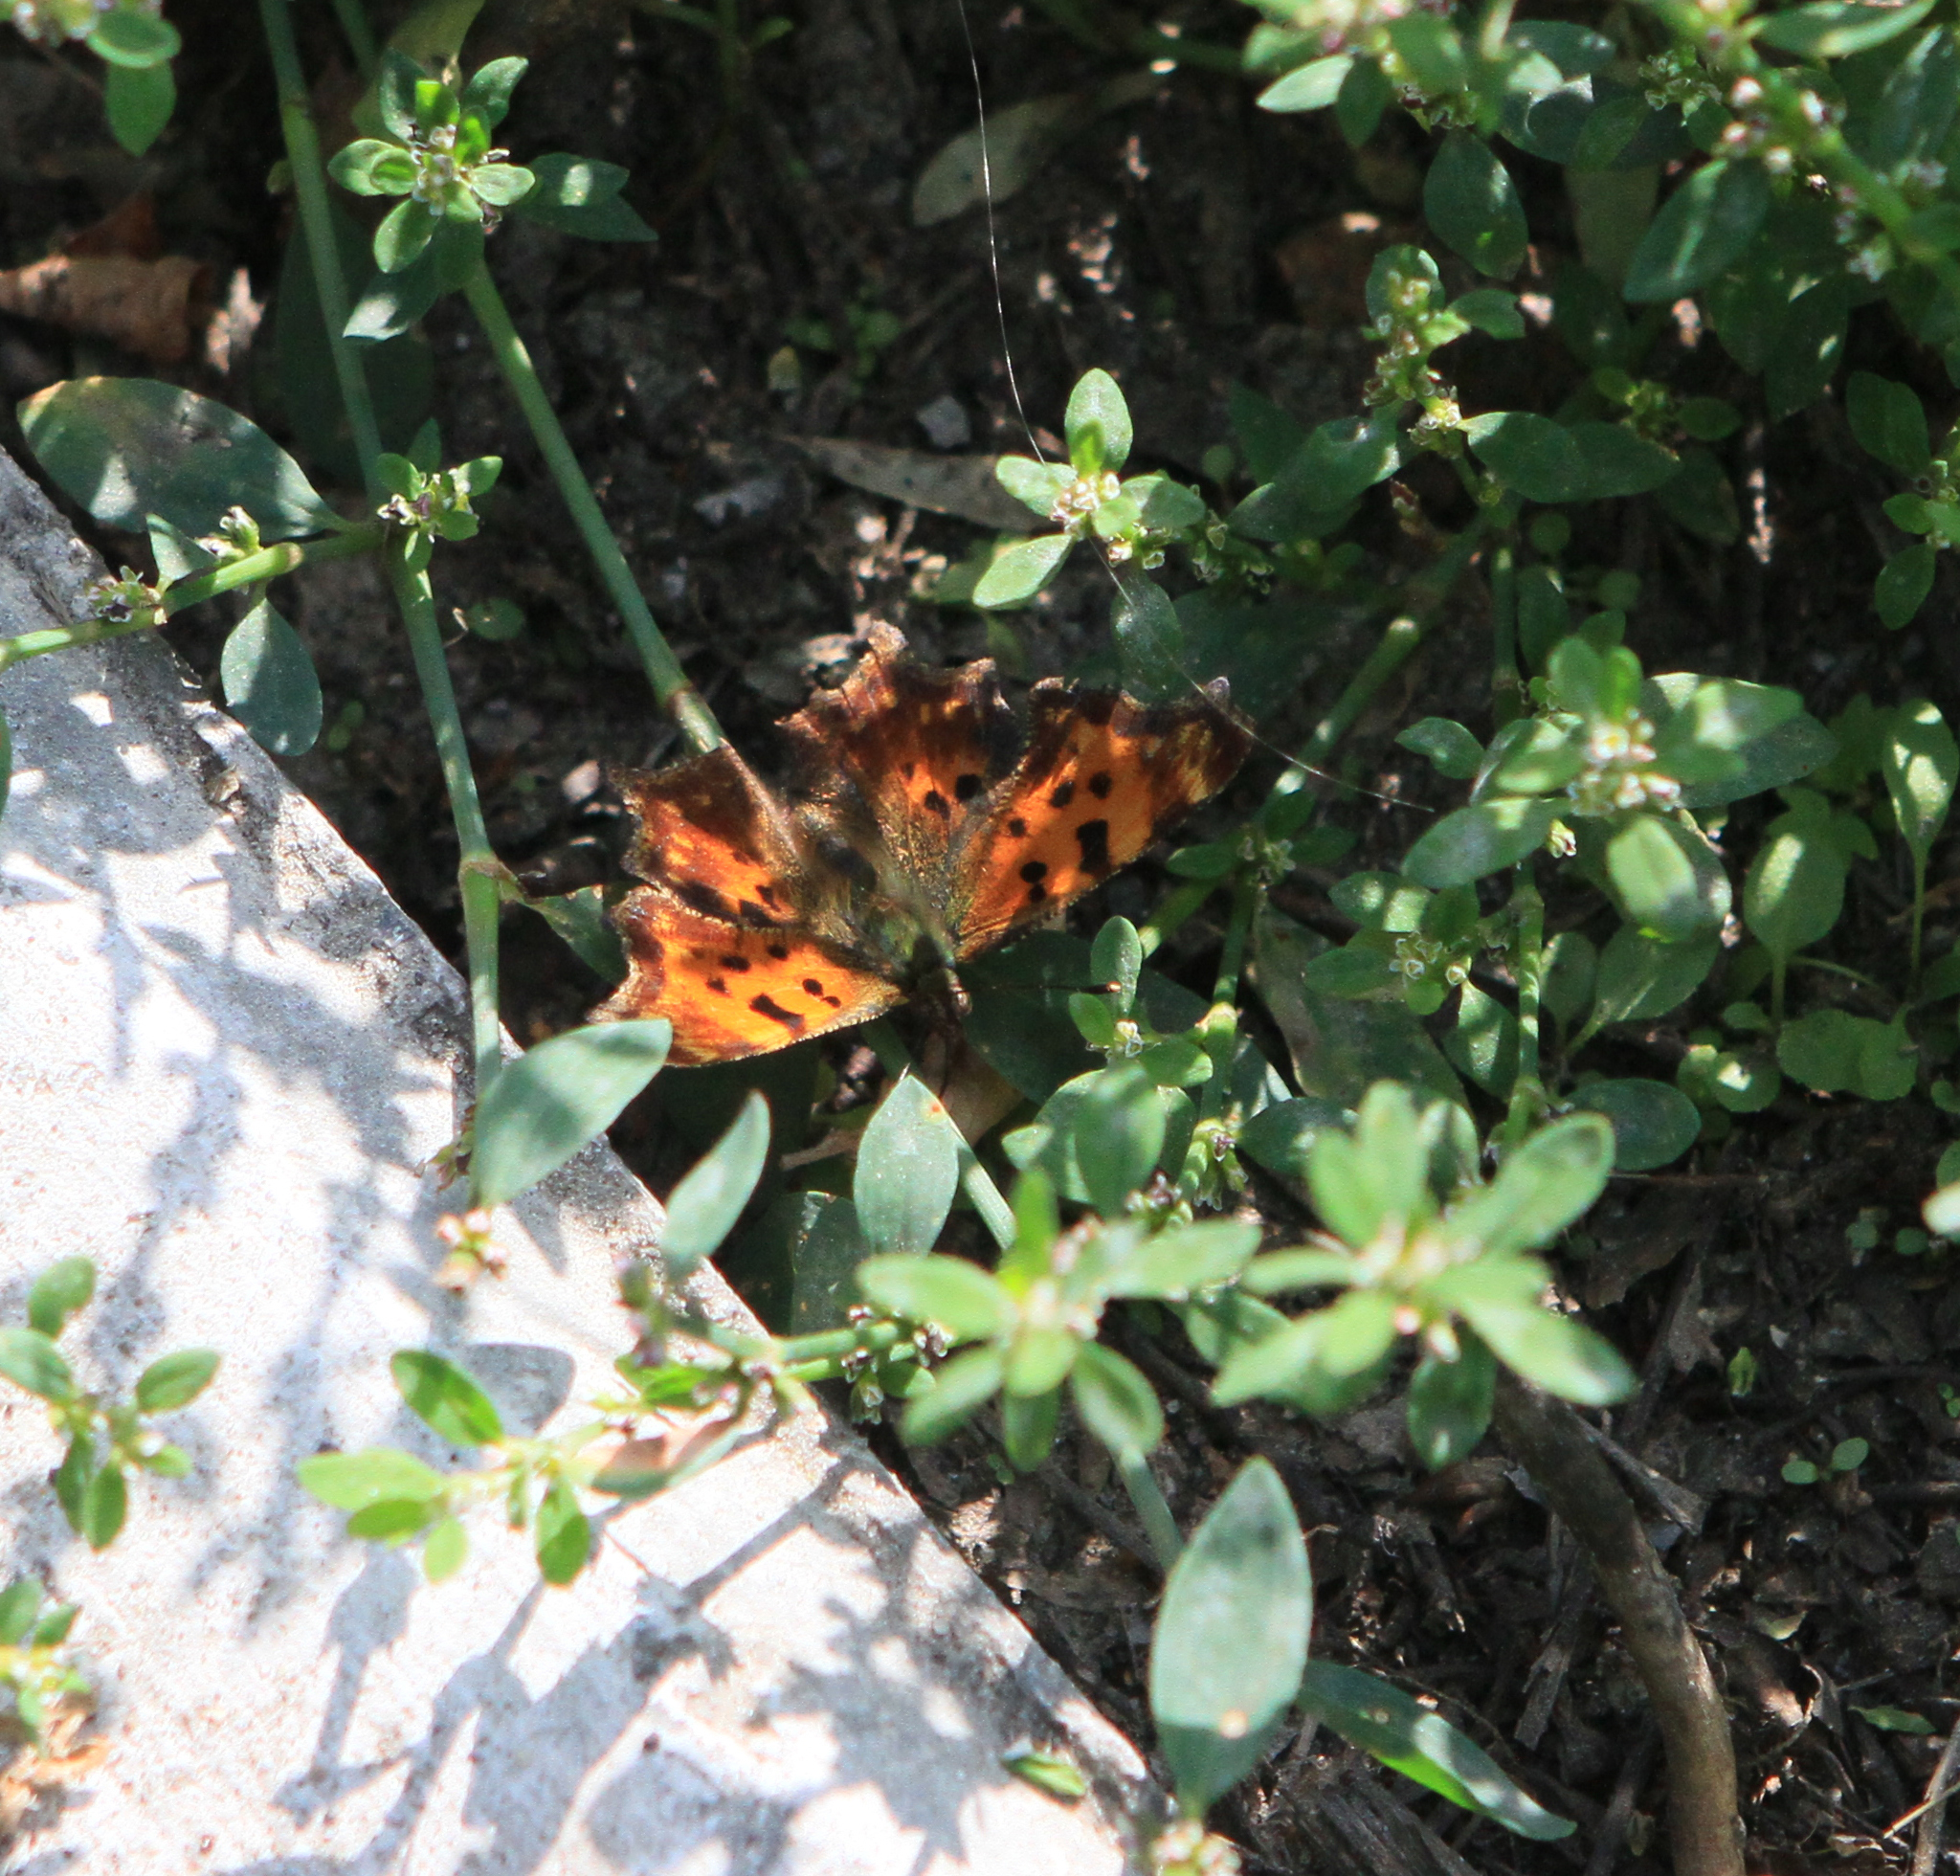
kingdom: Animalia
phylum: Arthropoda
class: Insecta
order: Lepidoptera
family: Nymphalidae
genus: Polygonia
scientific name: Polygonia c-album
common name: Comma
